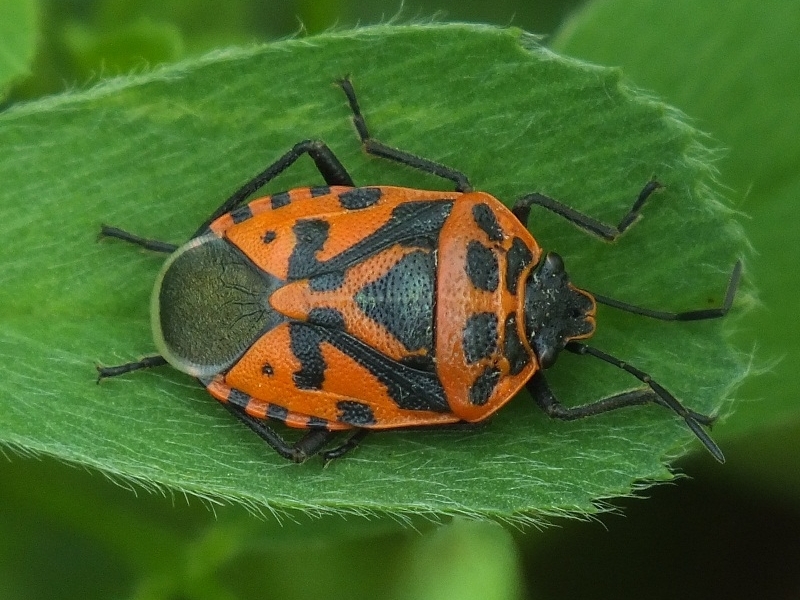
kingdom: Animalia
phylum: Arthropoda
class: Insecta
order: Hemiptera
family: Pentatomidae
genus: Eurydema
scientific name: Eurydema ventralis
